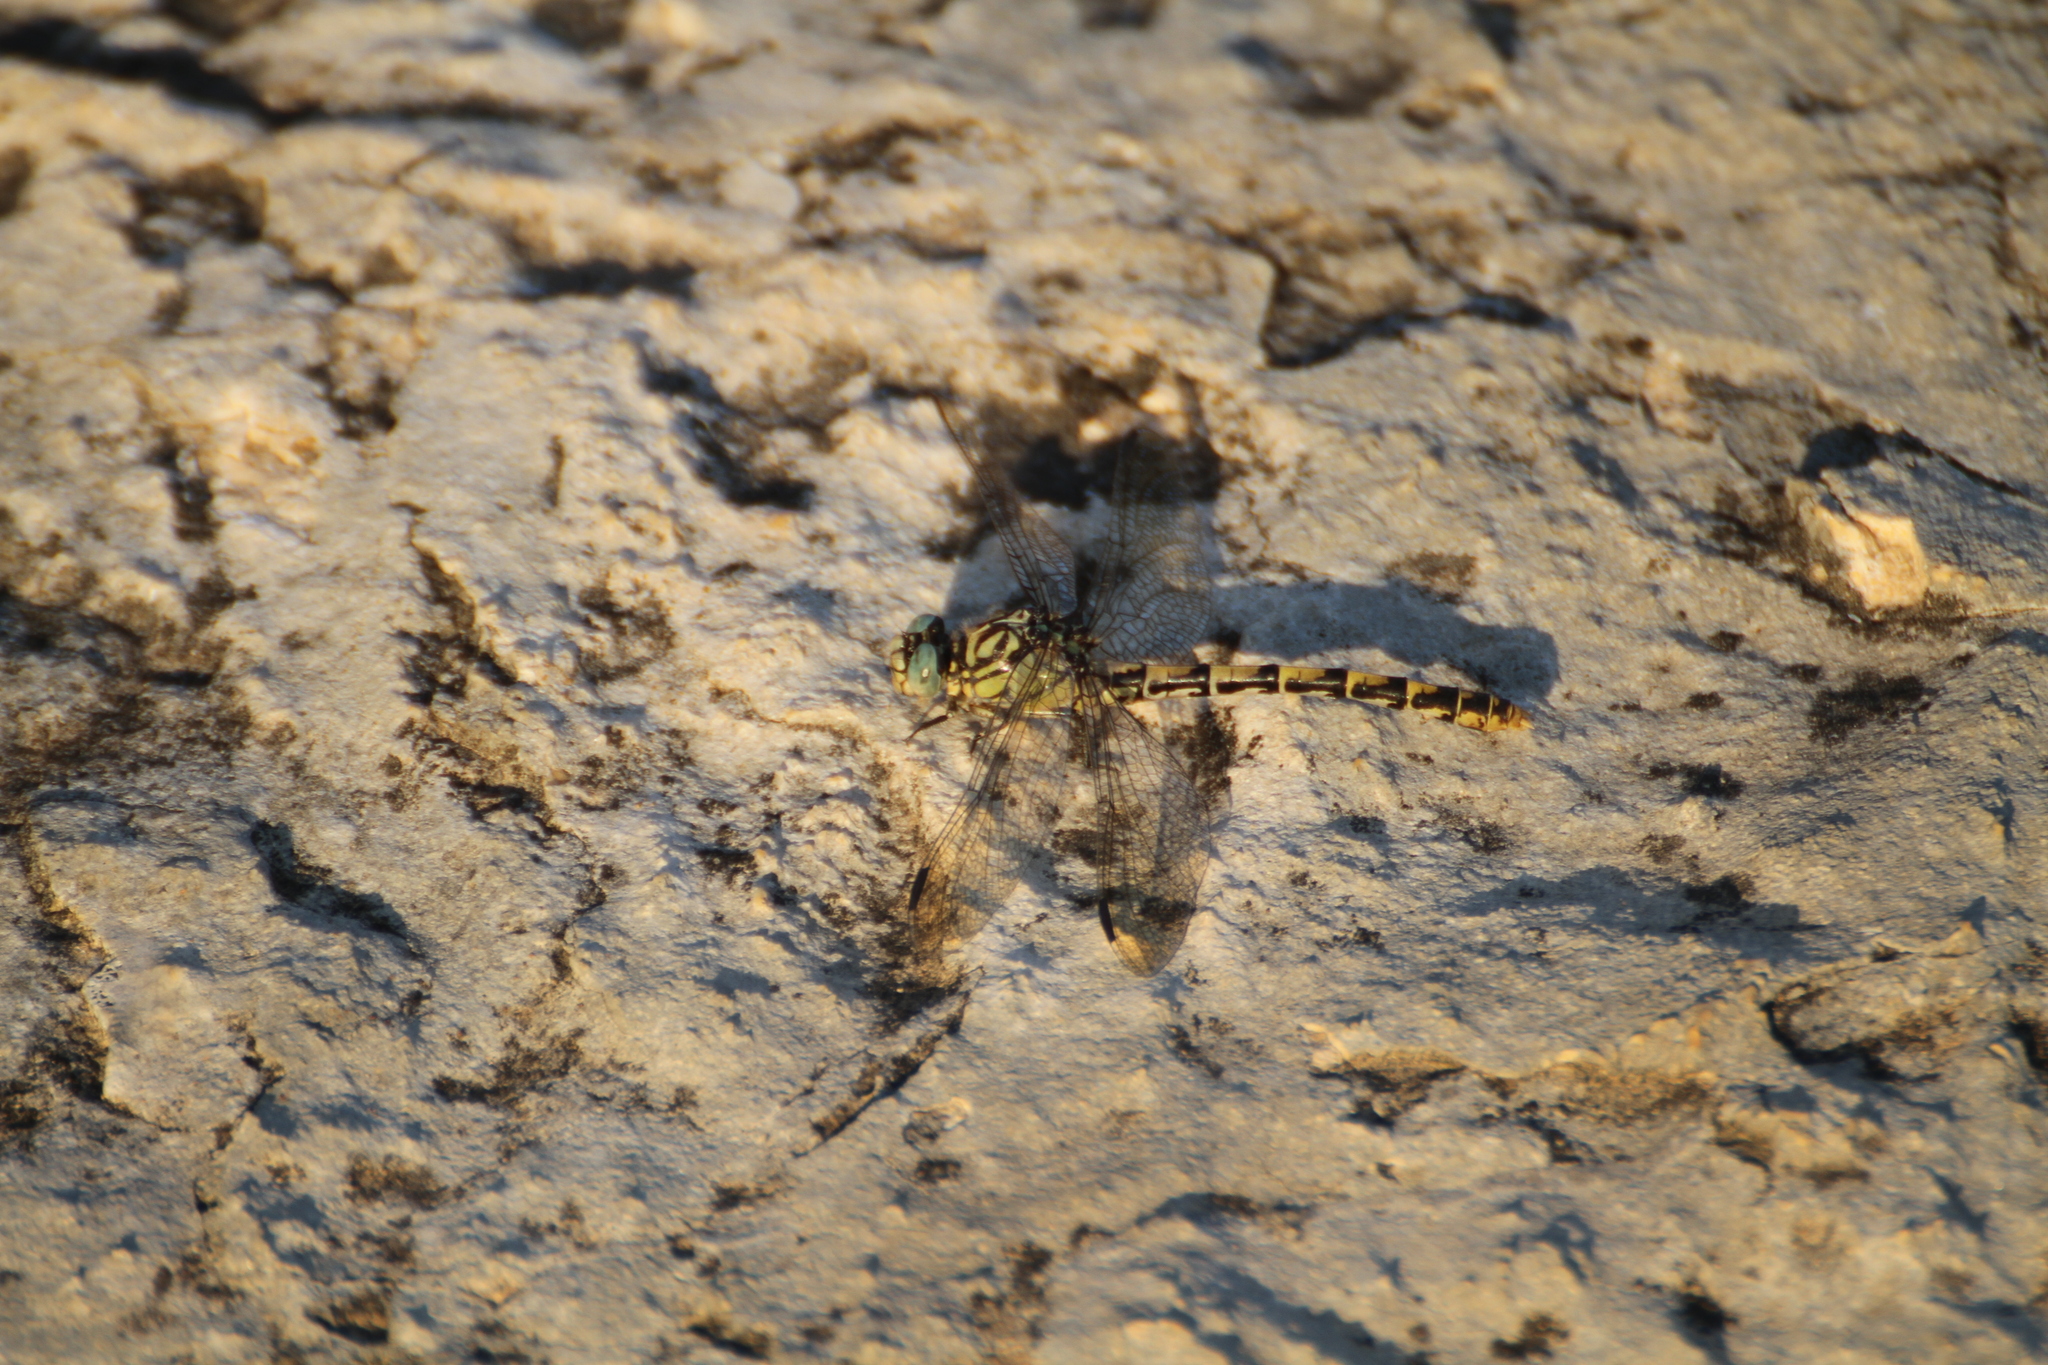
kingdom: Animalia
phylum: Arthropoda
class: Insecta
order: Odonata
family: Gomphidae
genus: Onychogomphus
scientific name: Onychogomphus forcipatus
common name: Small pincertail
